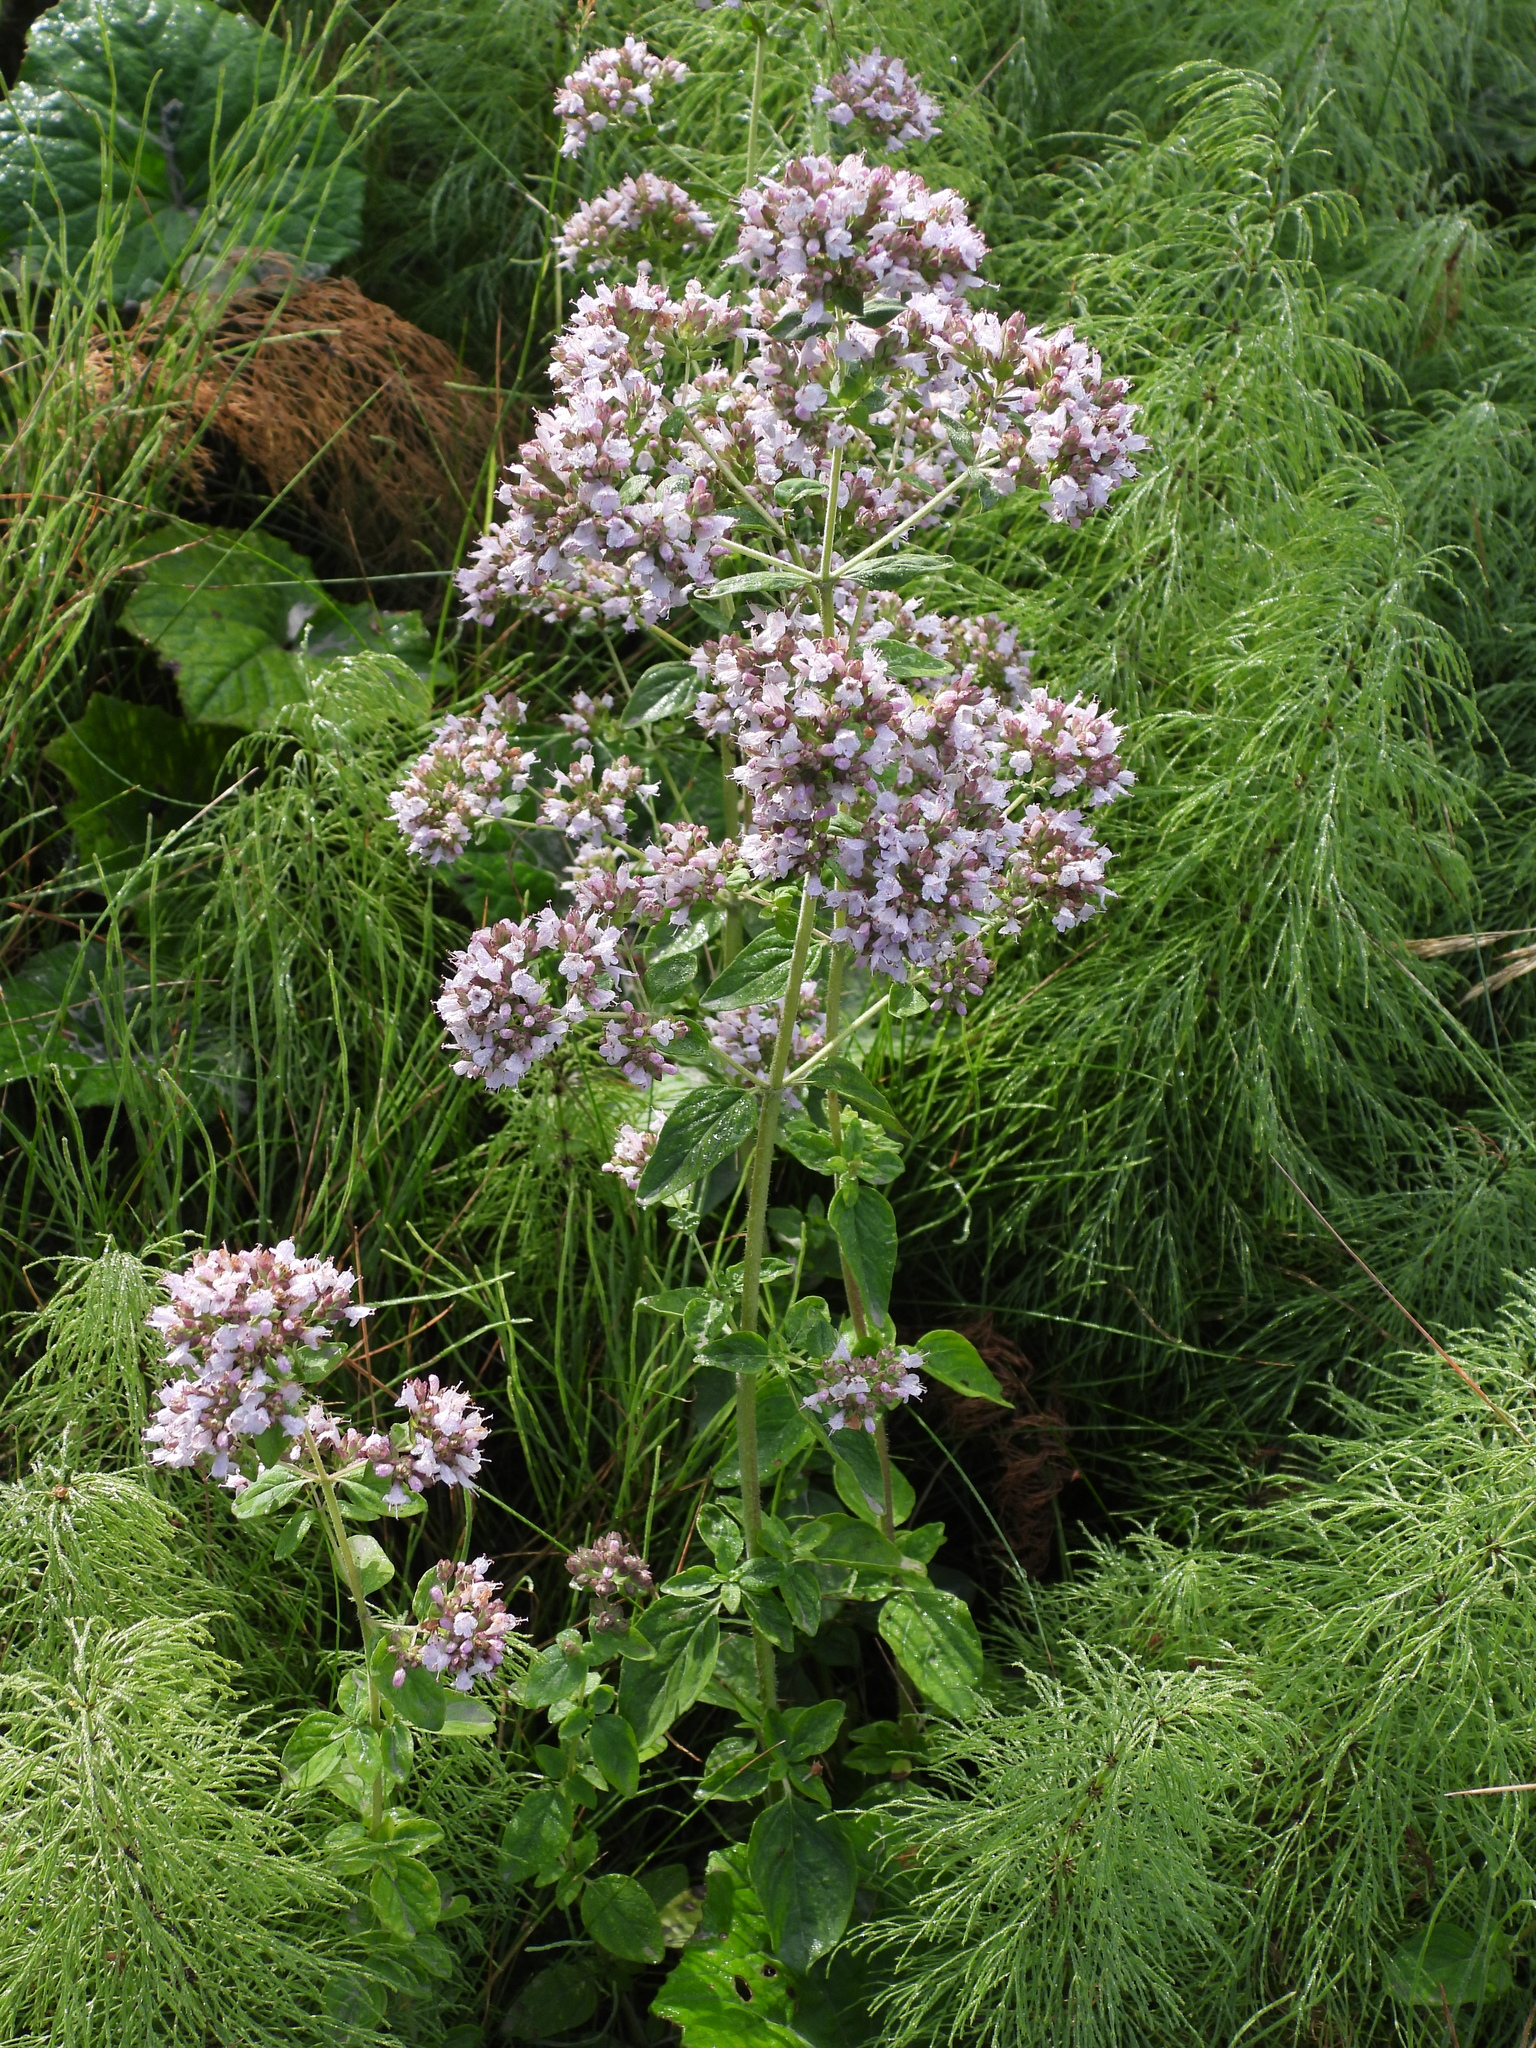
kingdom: Plantae
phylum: Tracheophyta
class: Magnoliopsida
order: Lamiales
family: Lamiaceae
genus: Origanum
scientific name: Origanum vulgare
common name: Wild marjoram
